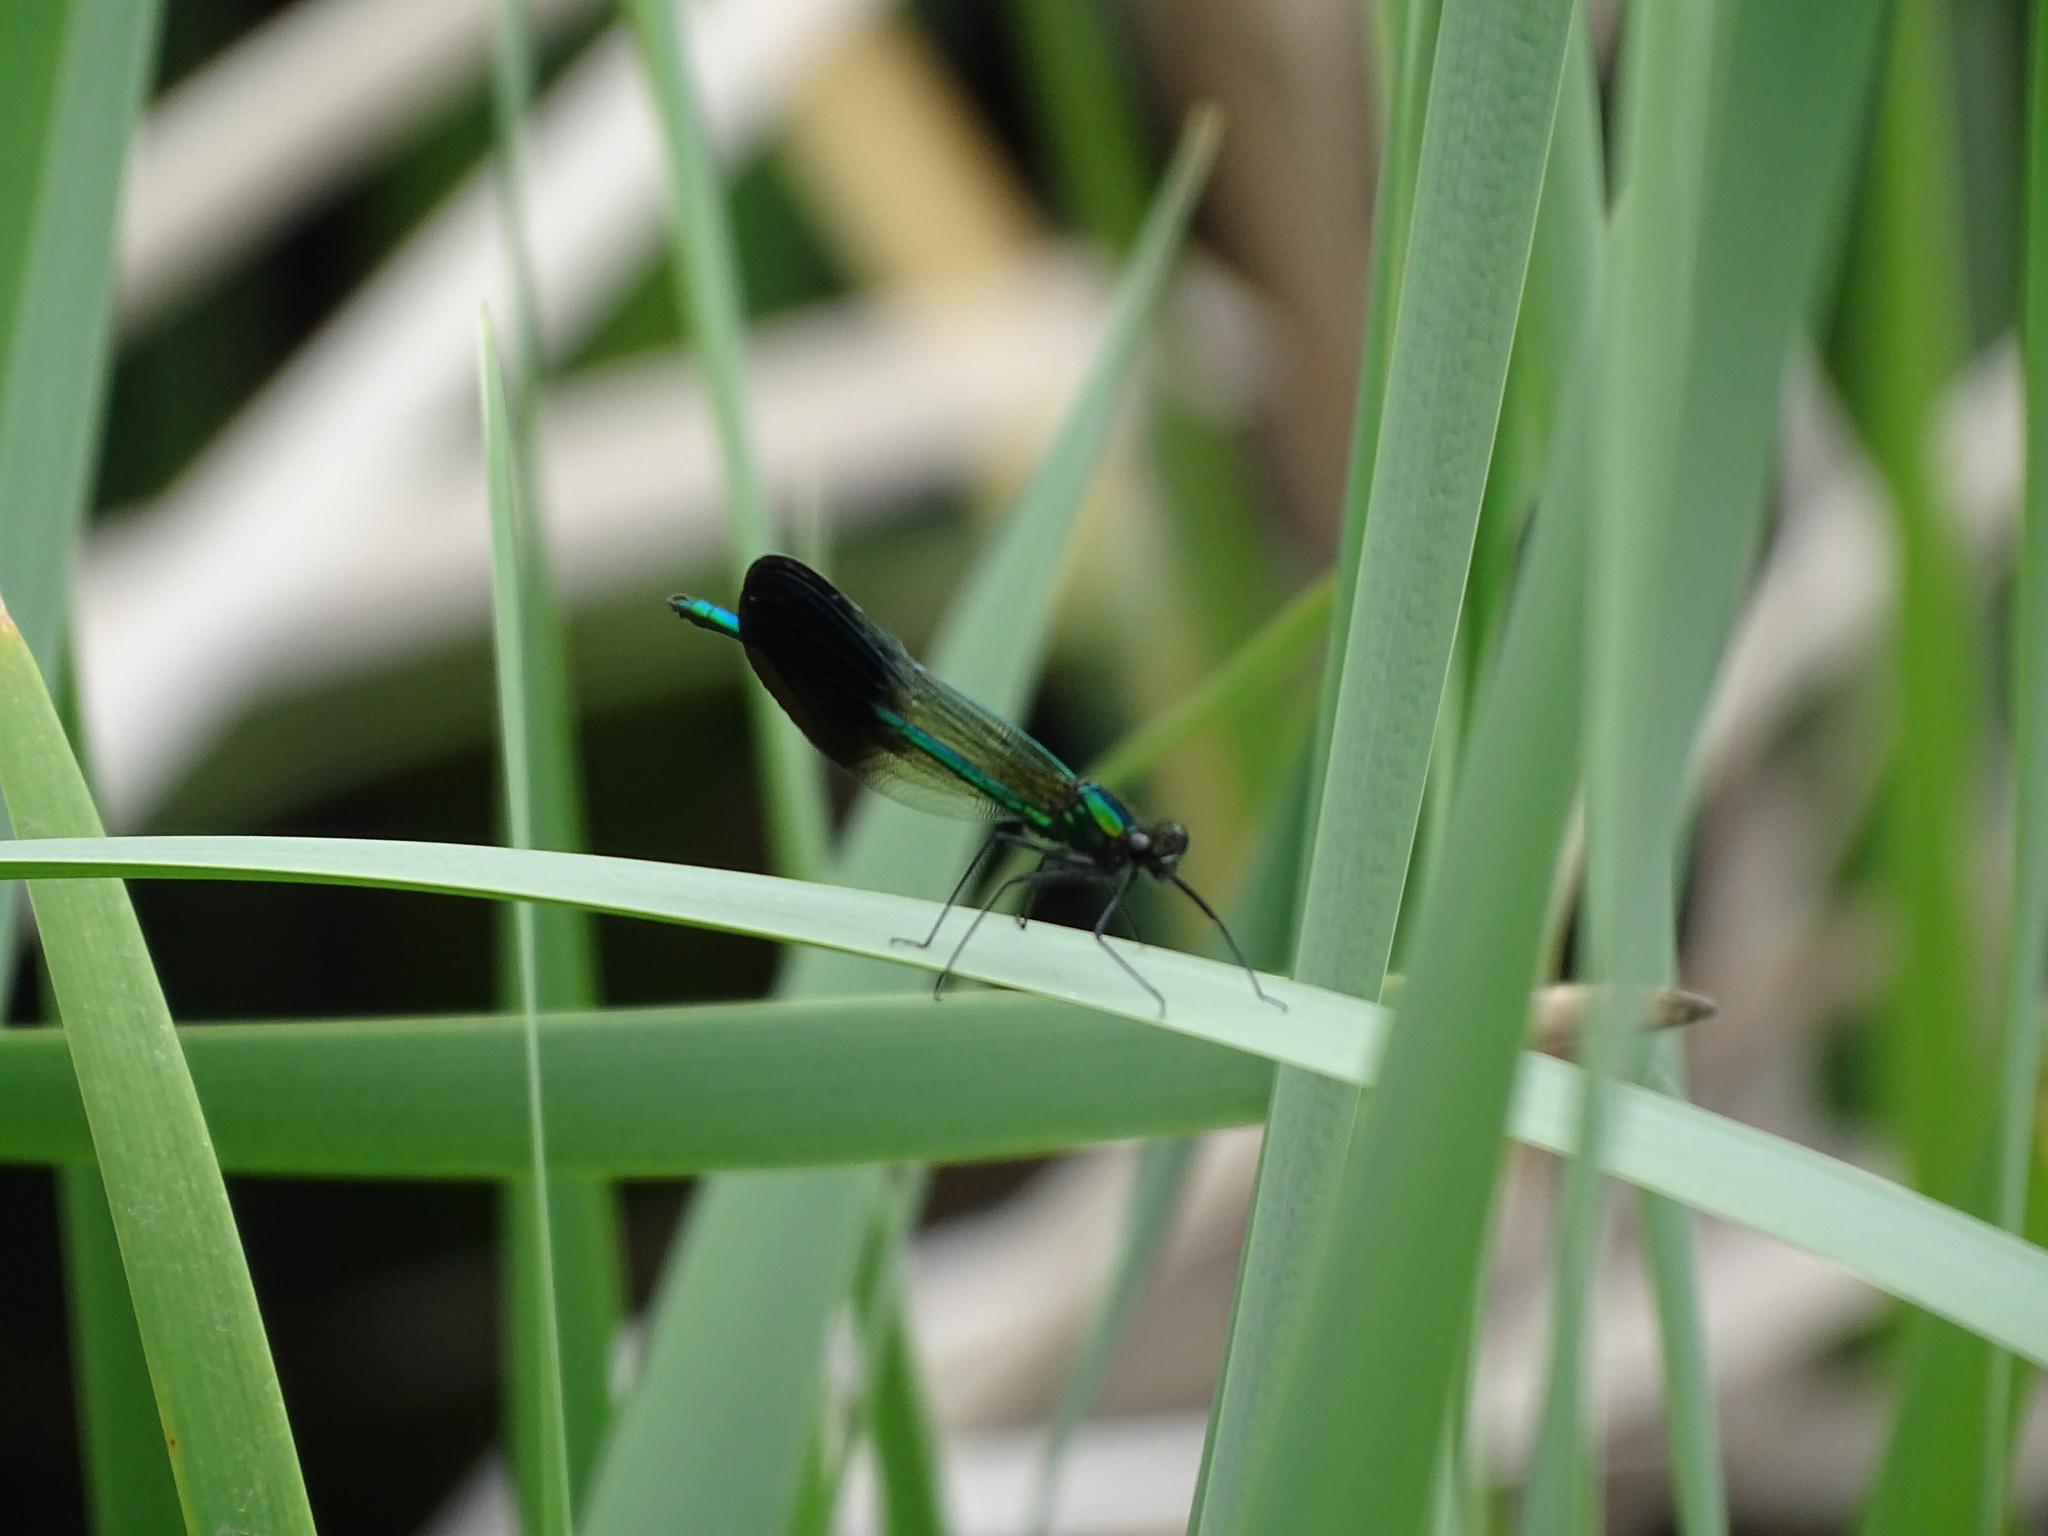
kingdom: Animalia
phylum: Arthropoda
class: Insecta
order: Odonata
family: Calopterygidae
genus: Calopteryx
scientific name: Calopteryx aequabilis
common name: River jewelwing
